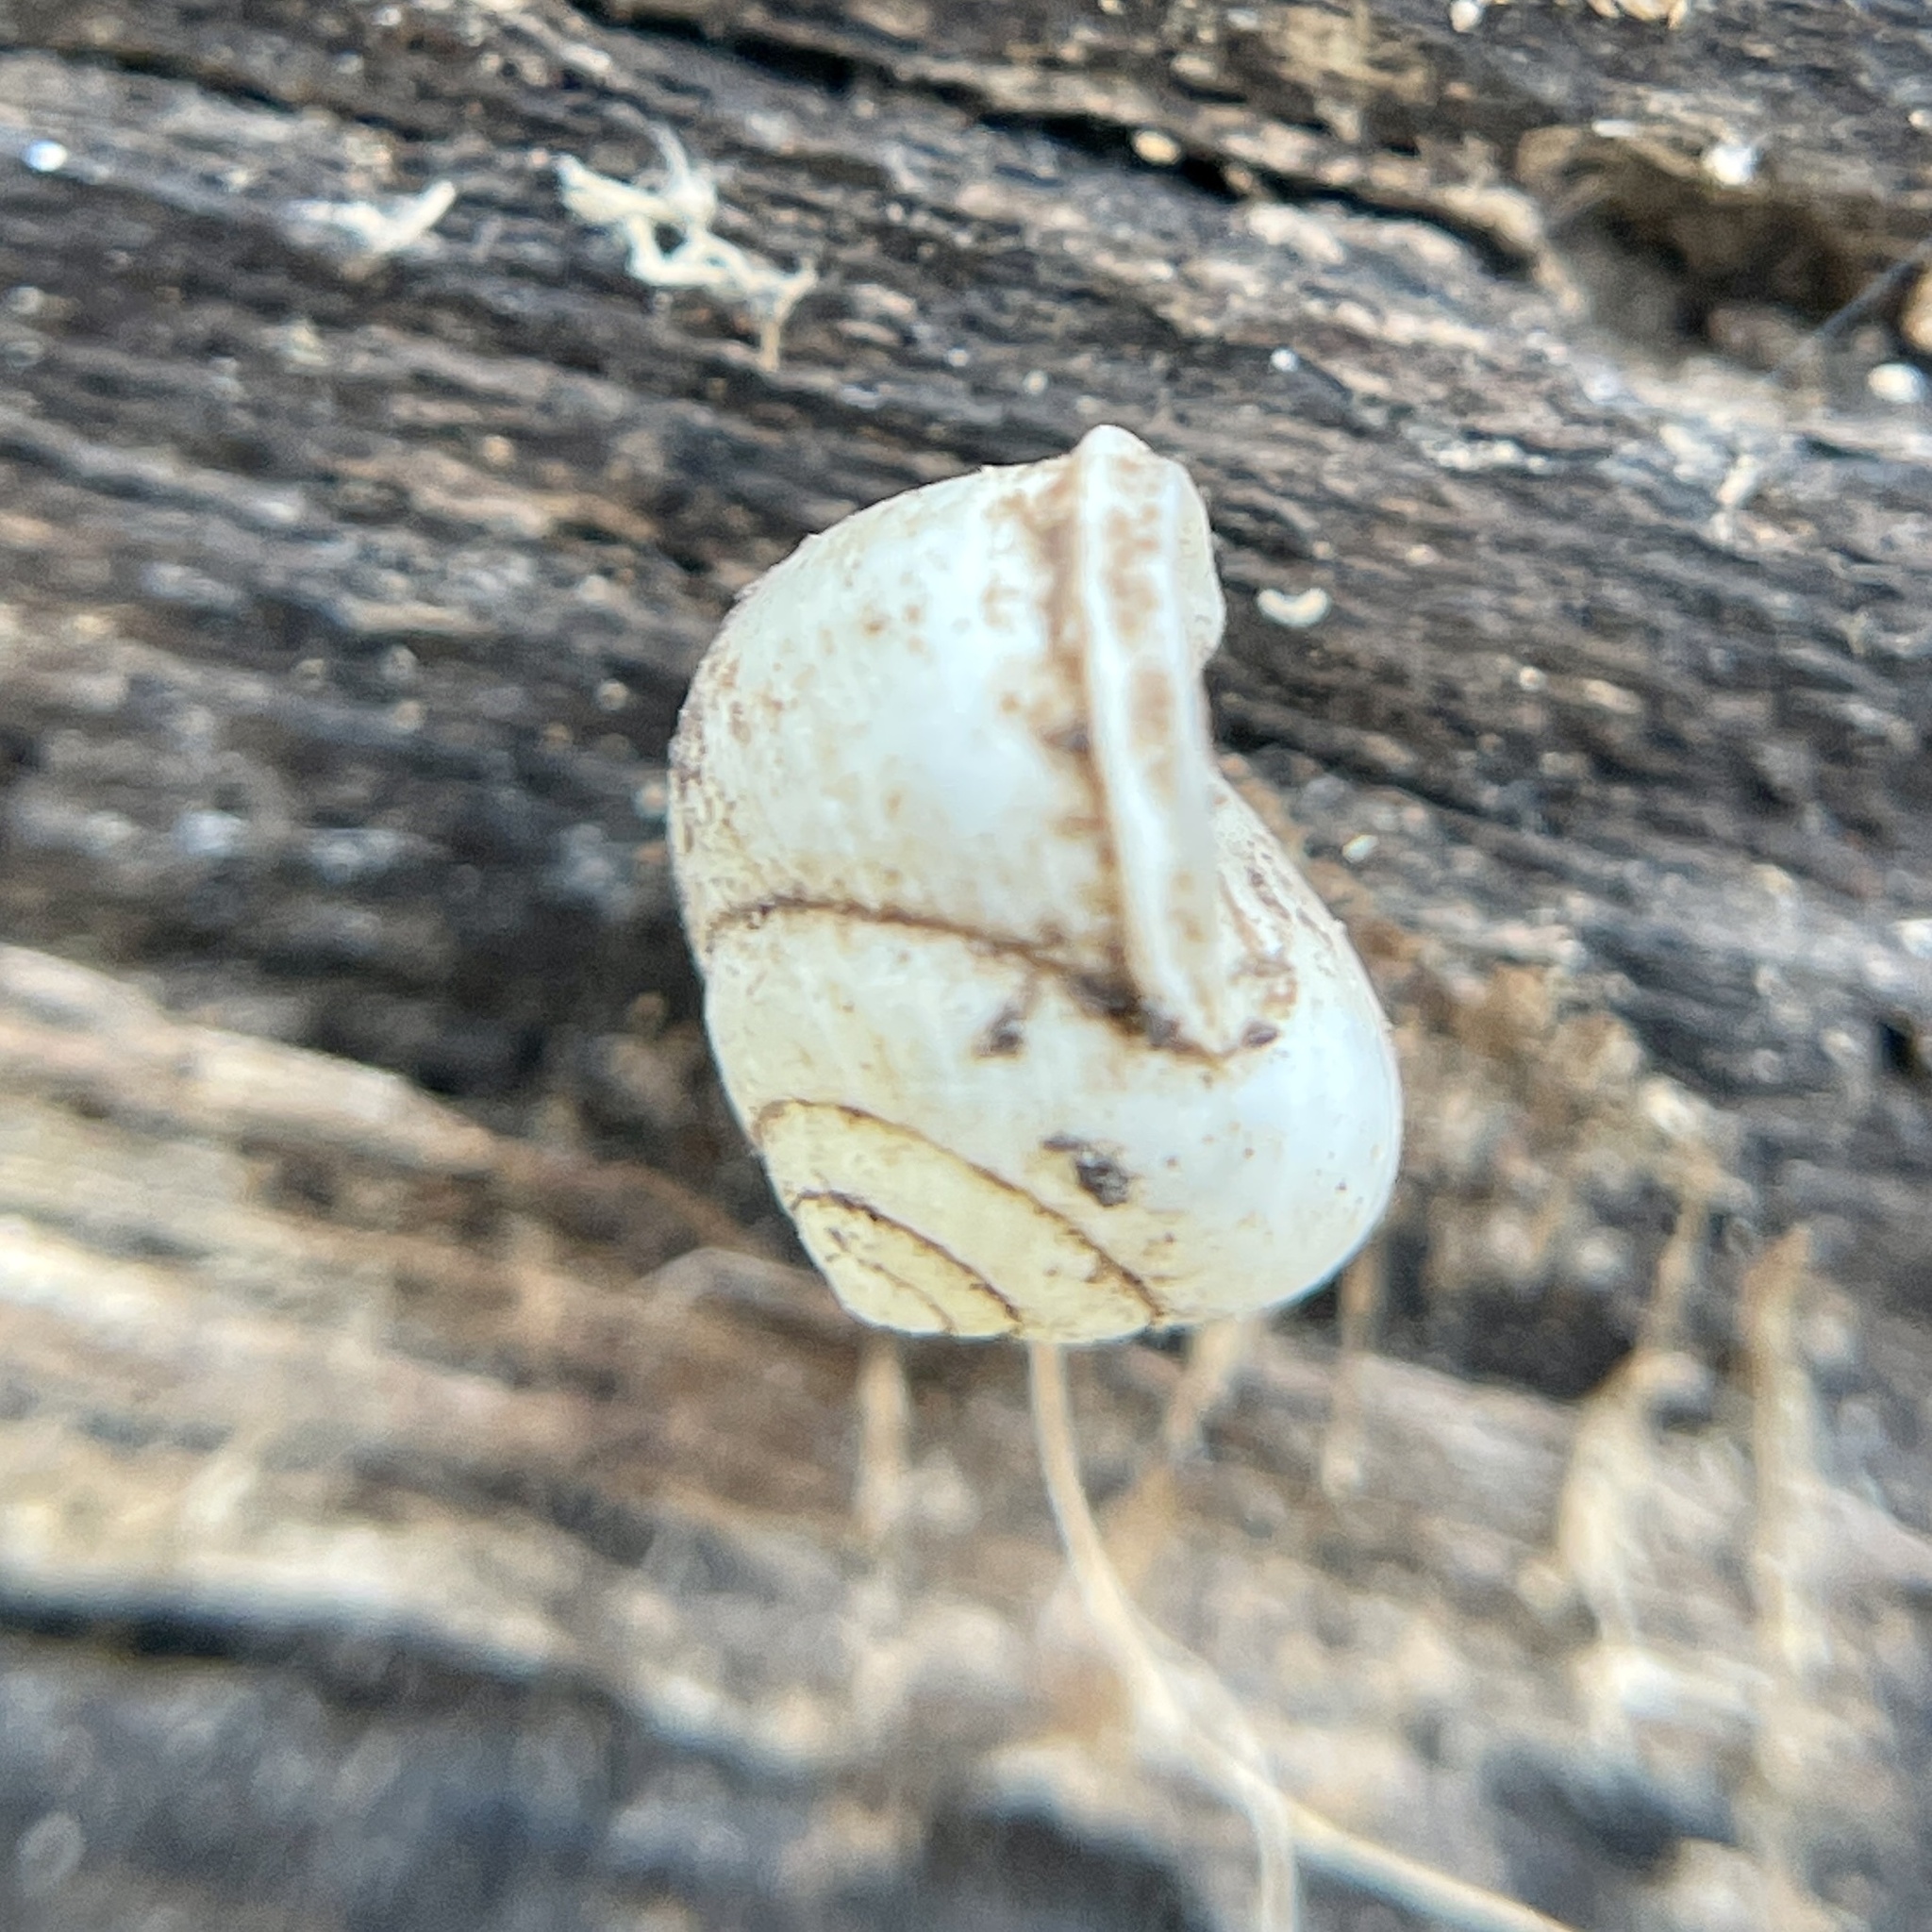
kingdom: Animalia
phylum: Mollusca
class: Gastropoda
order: Cycloneritida
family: Helicinidae
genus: Helicina
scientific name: Helicina orbiculata
